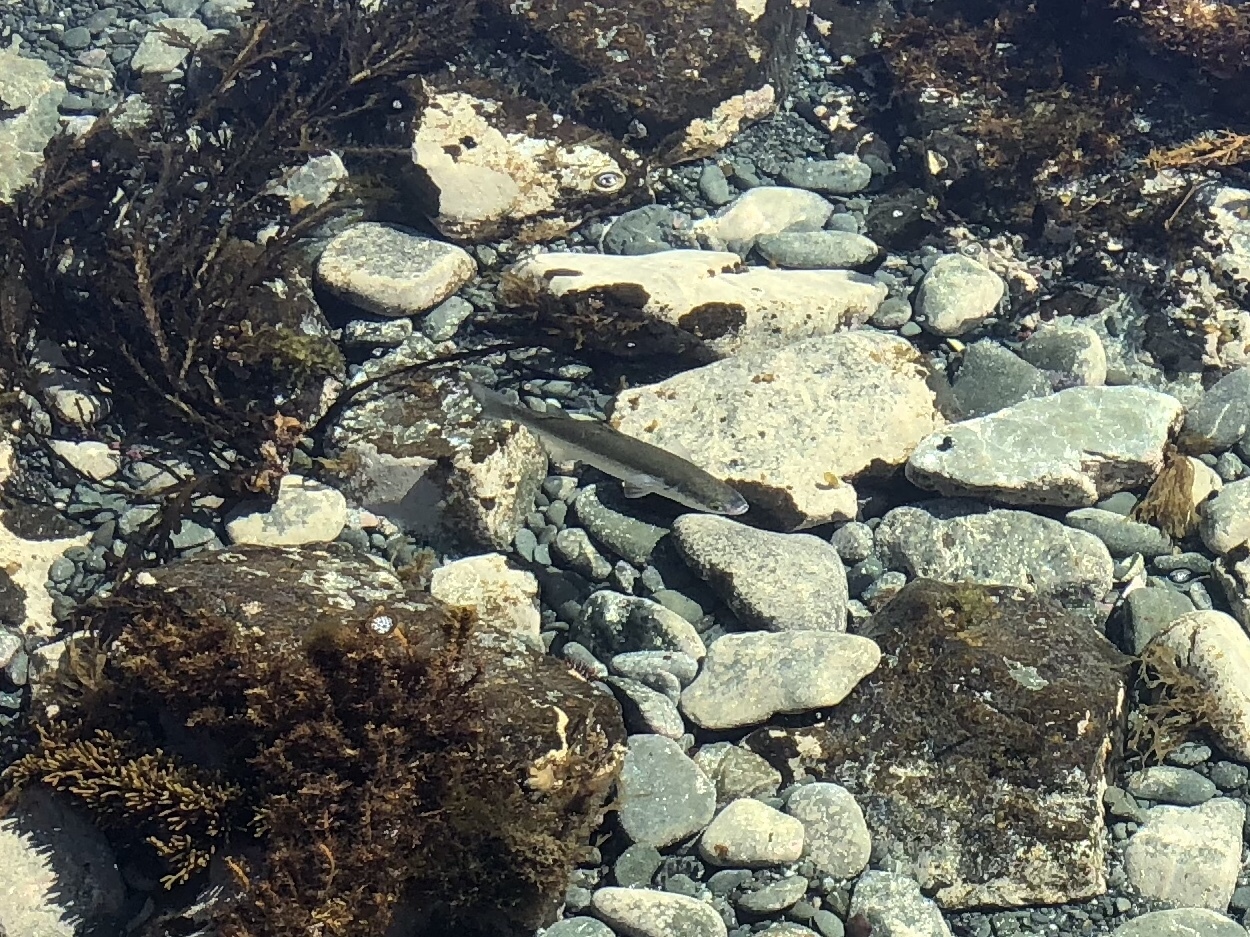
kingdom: Animalia
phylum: Chordata
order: Mugiliformes
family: Mugilidae
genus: Aldrichetta
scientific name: Aldrichetta forsteri
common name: Yellow-eye mullet
